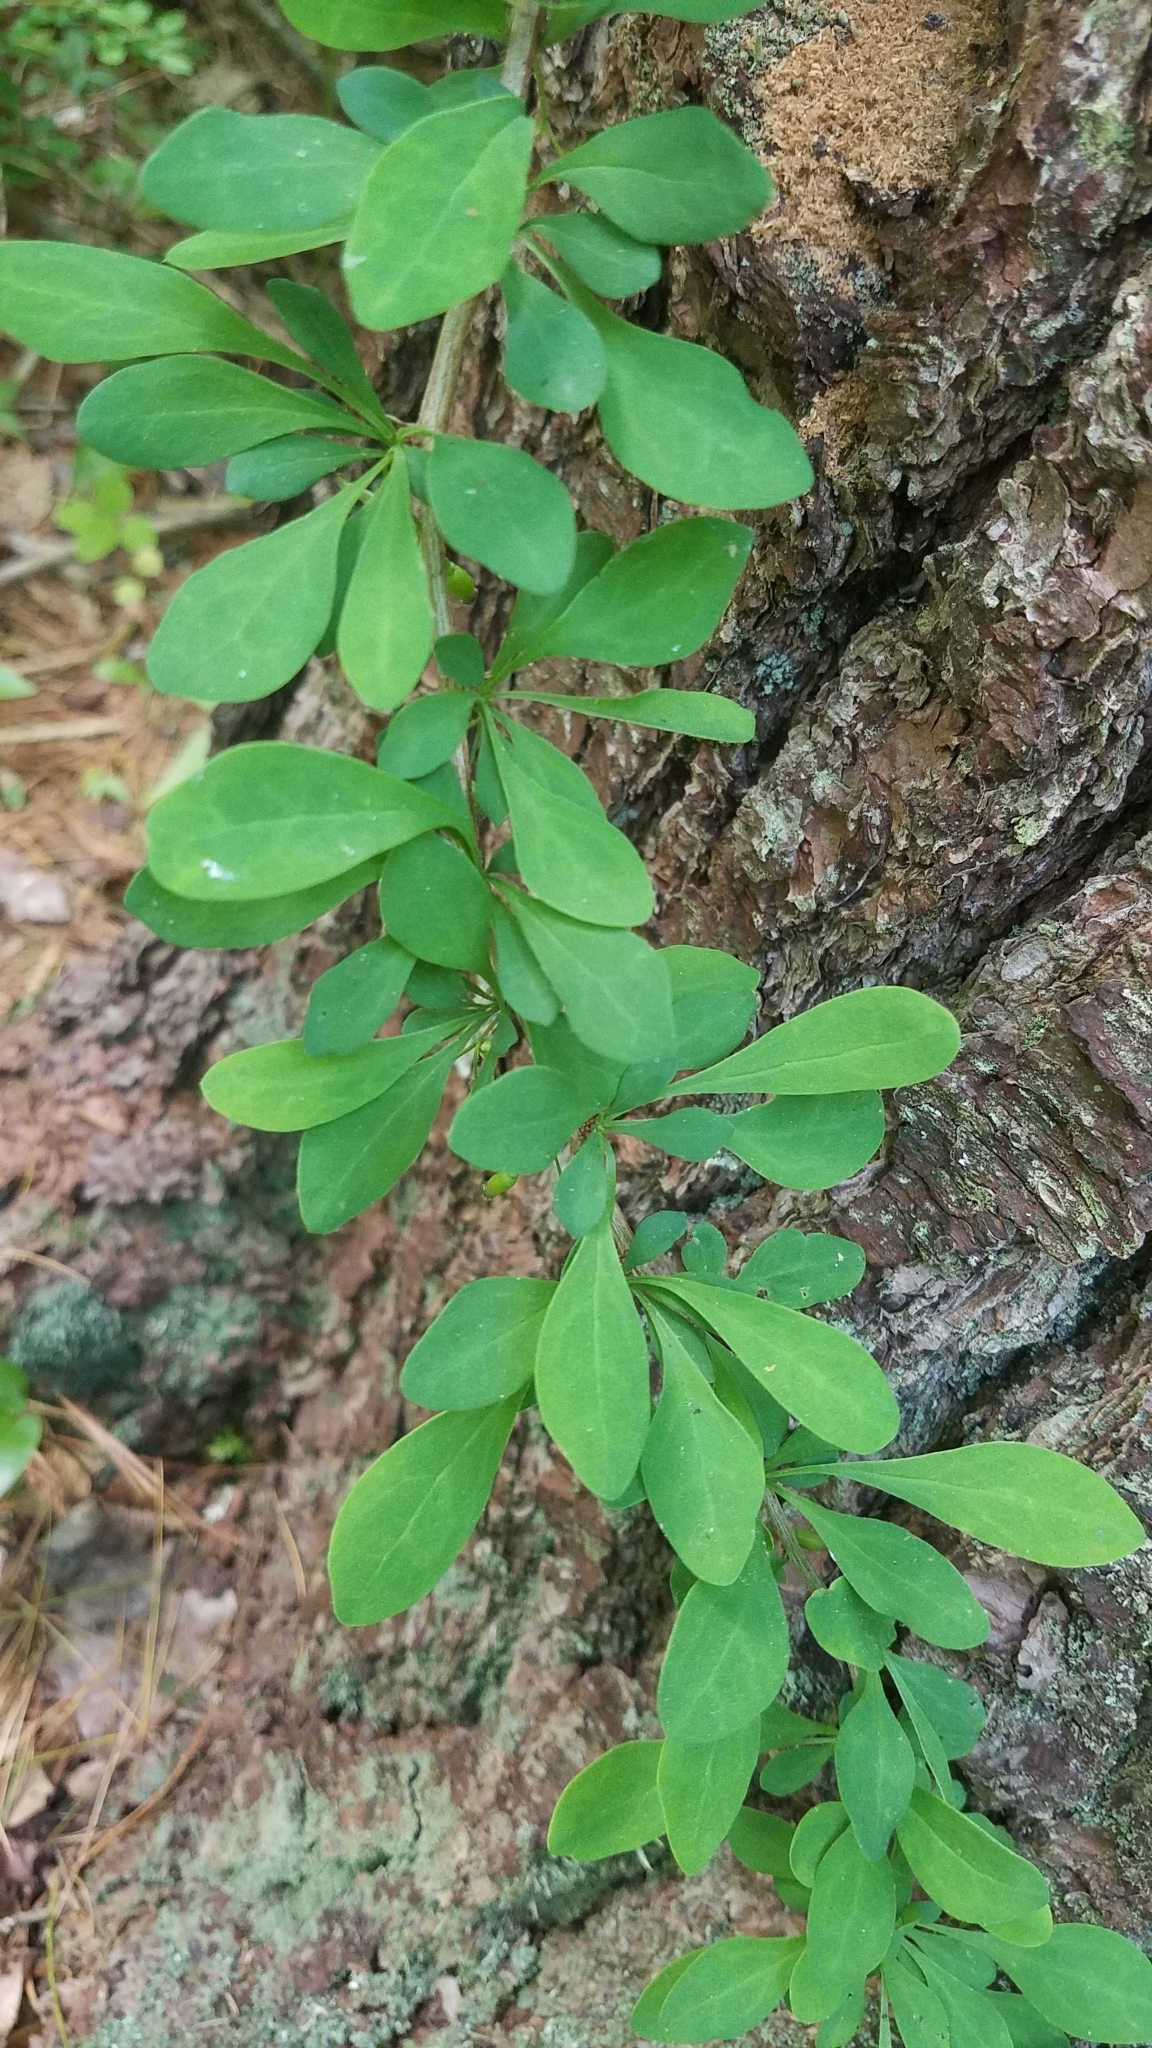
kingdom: Plantae
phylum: Tracheophyta
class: Magnoliopsida
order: Ranunculales
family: Berberidaceae
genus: Berberis
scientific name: Berberis thunbergii
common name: Japanese barberry
